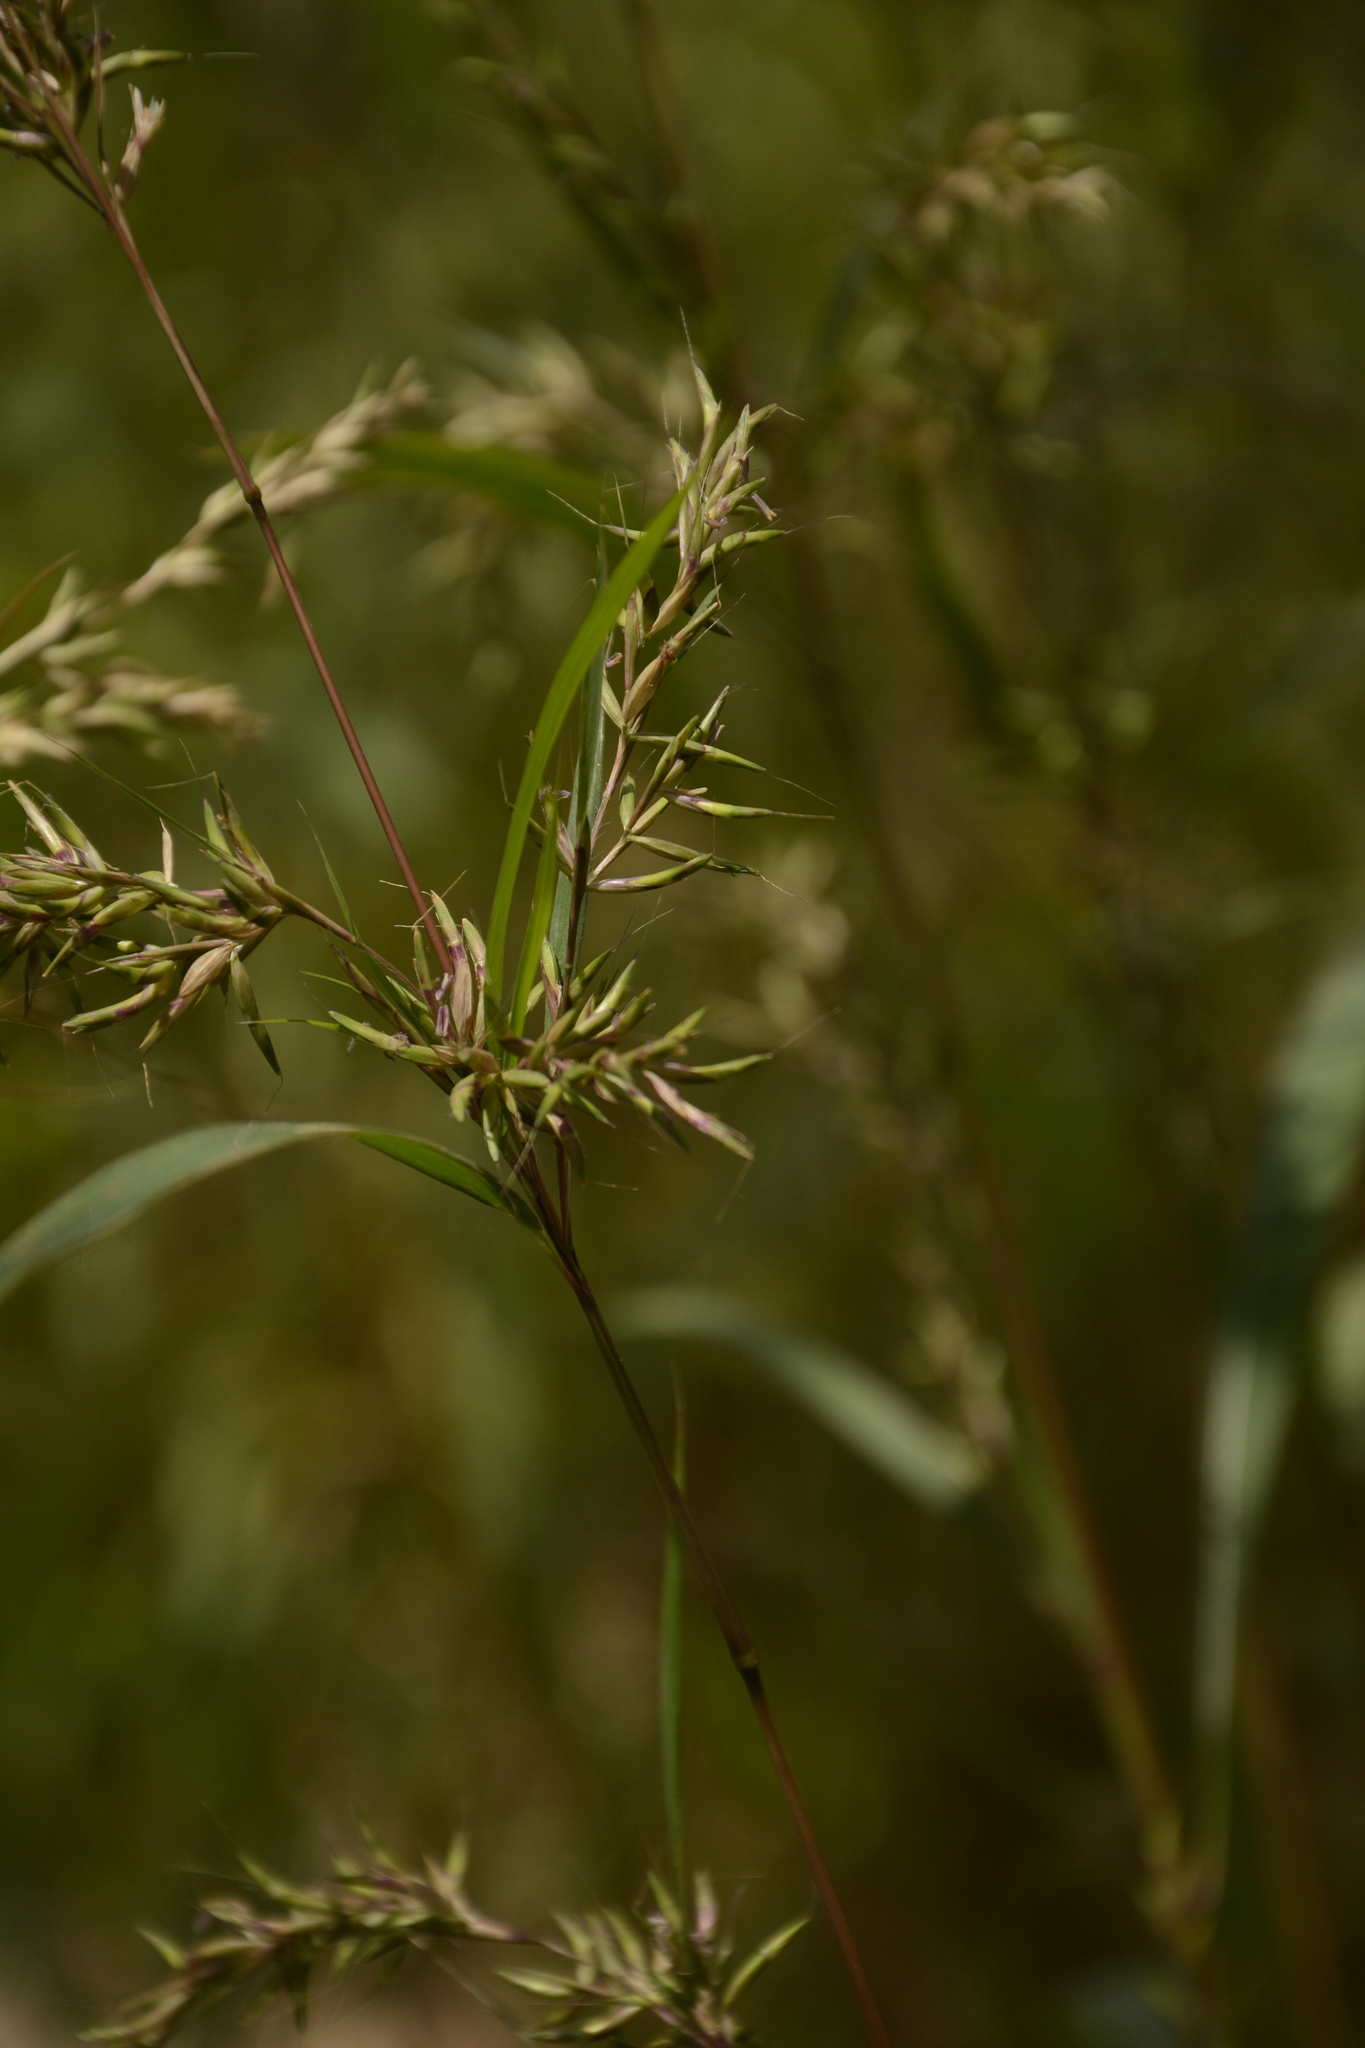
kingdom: Plantae
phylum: Tracheophyta
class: Liliopsida
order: Poales
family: Poaceae
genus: Apluda
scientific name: Apluda mutica
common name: Mauritian grass
